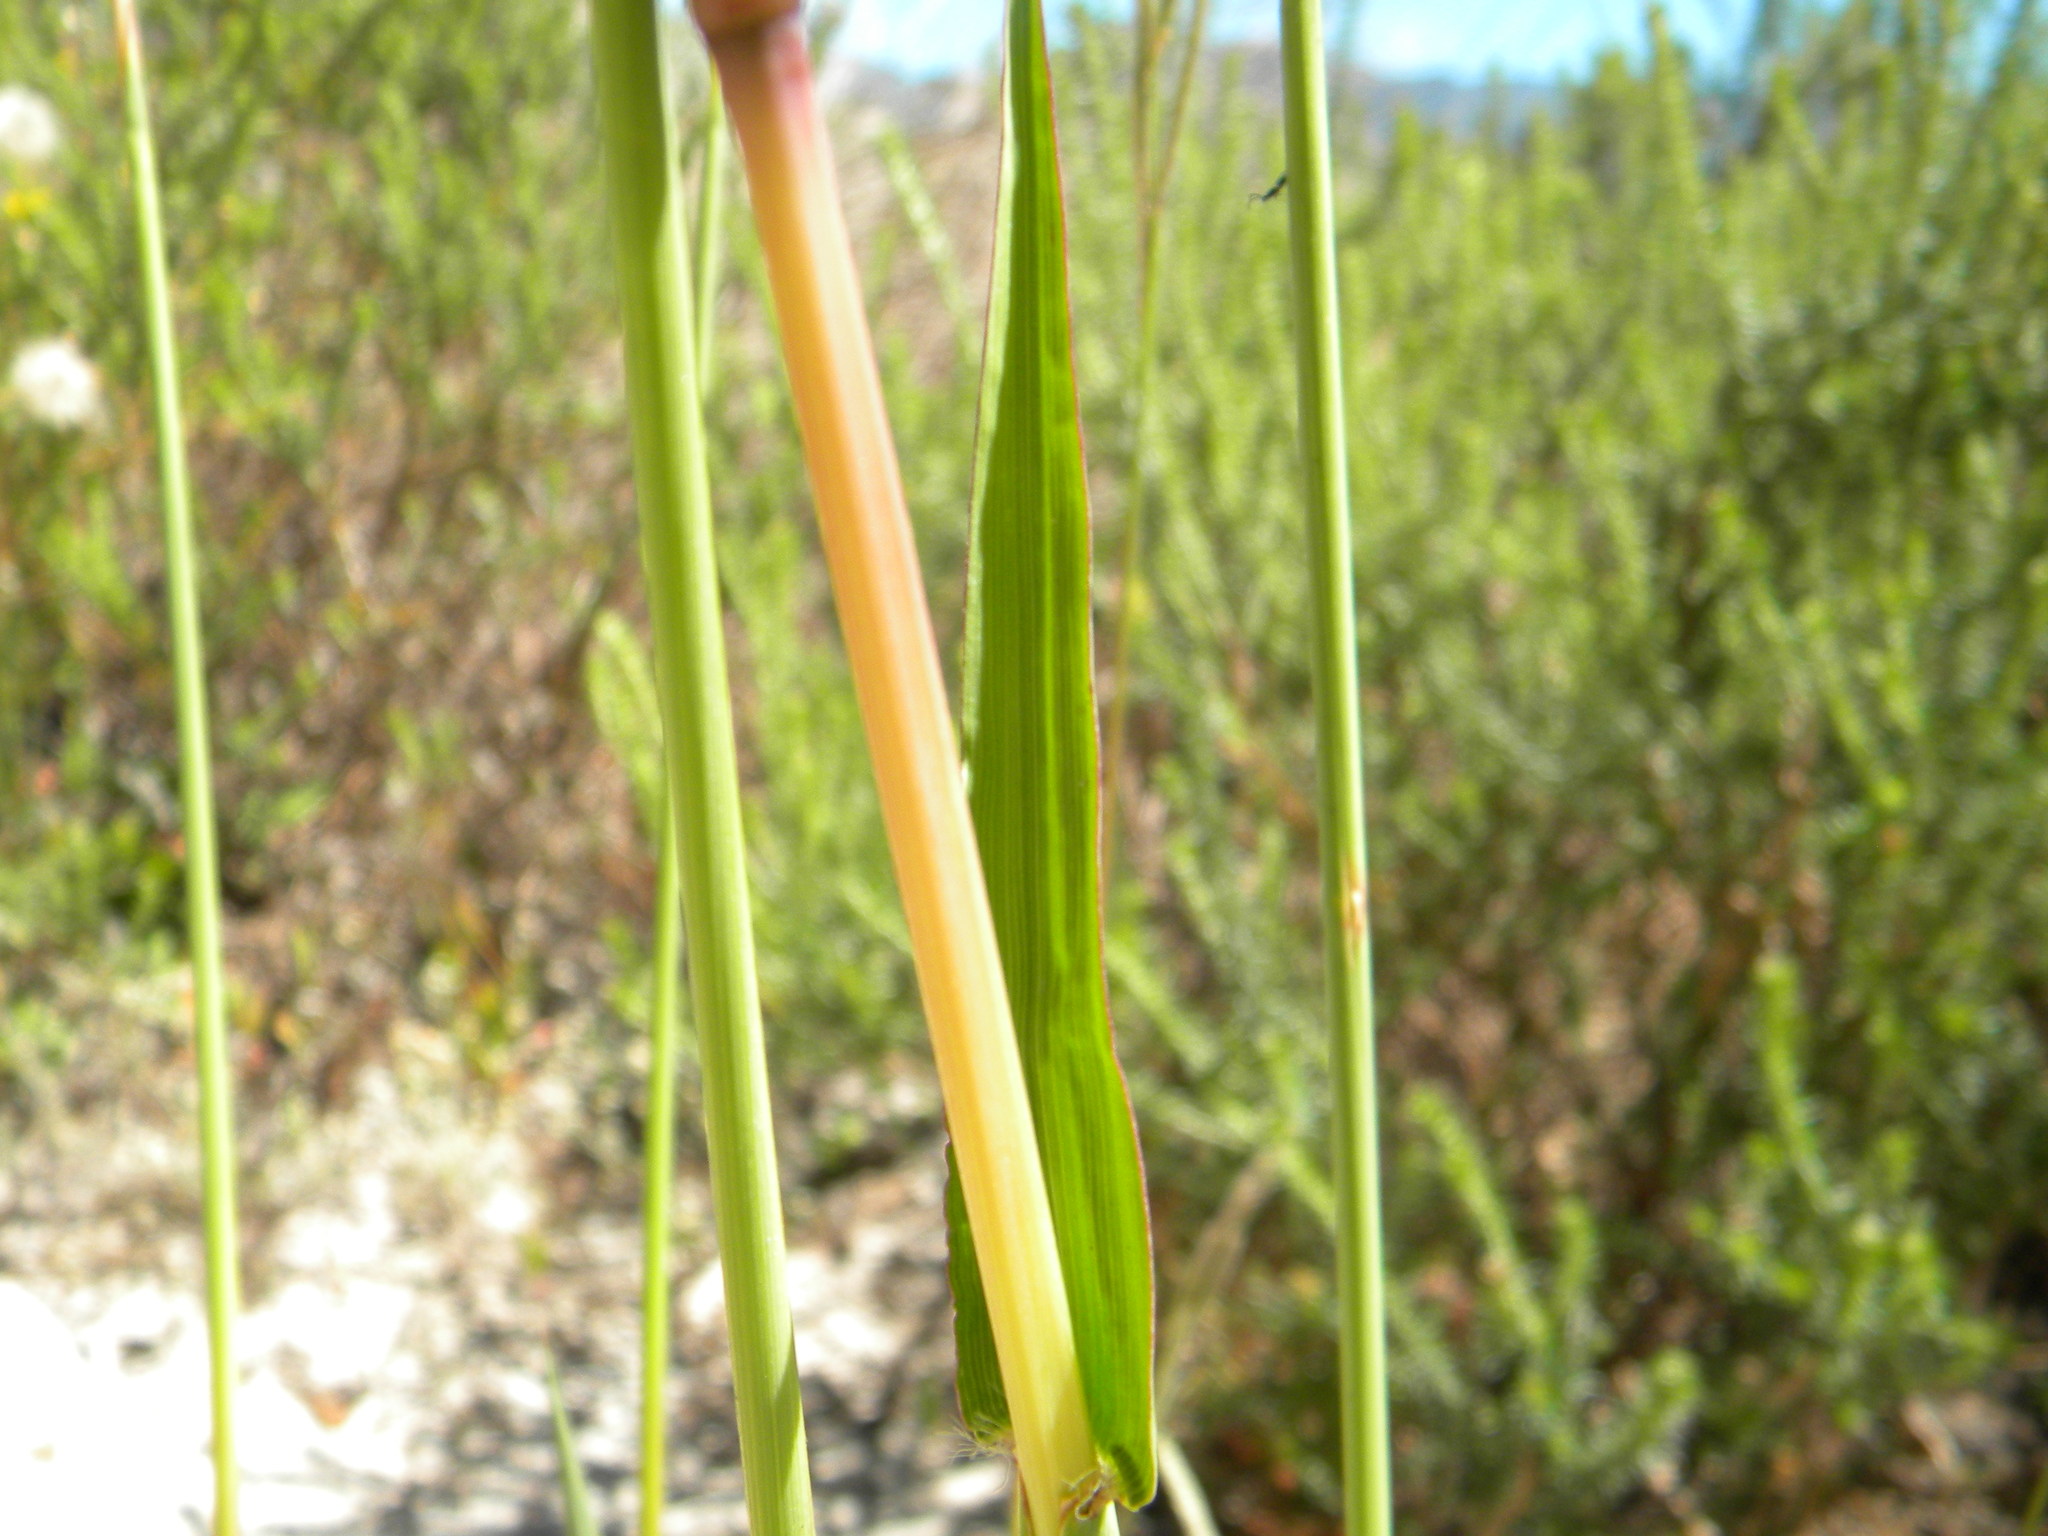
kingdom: Plantae
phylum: Tracheophyta
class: Liliopsida
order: Poales
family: Poaceae
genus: Paspalum
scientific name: Paspalum urvillei
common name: Vasey's grass
